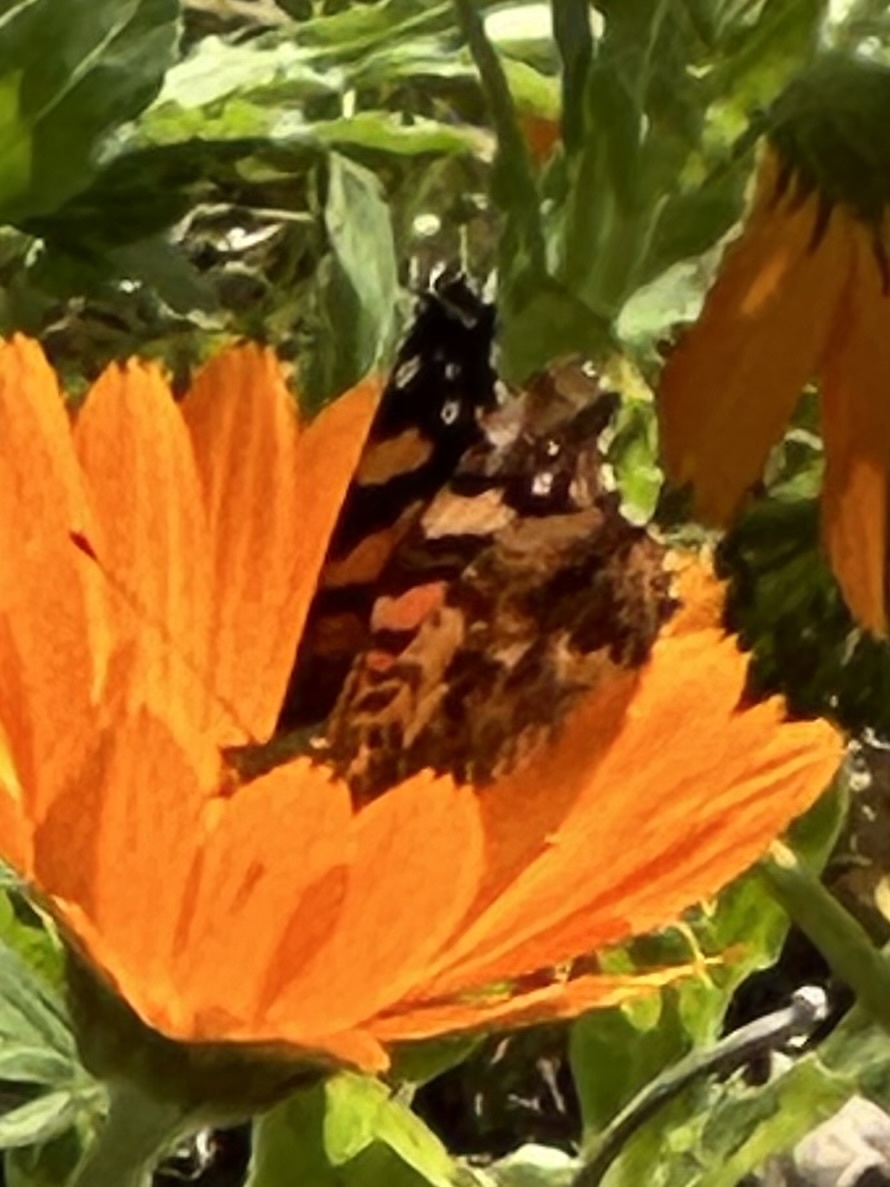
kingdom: Animalia
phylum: Arthropoda
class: Insecta
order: Lepidoptera
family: Nymphalidae
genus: Vanessa
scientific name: Vanessa annabella
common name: West coast lady
